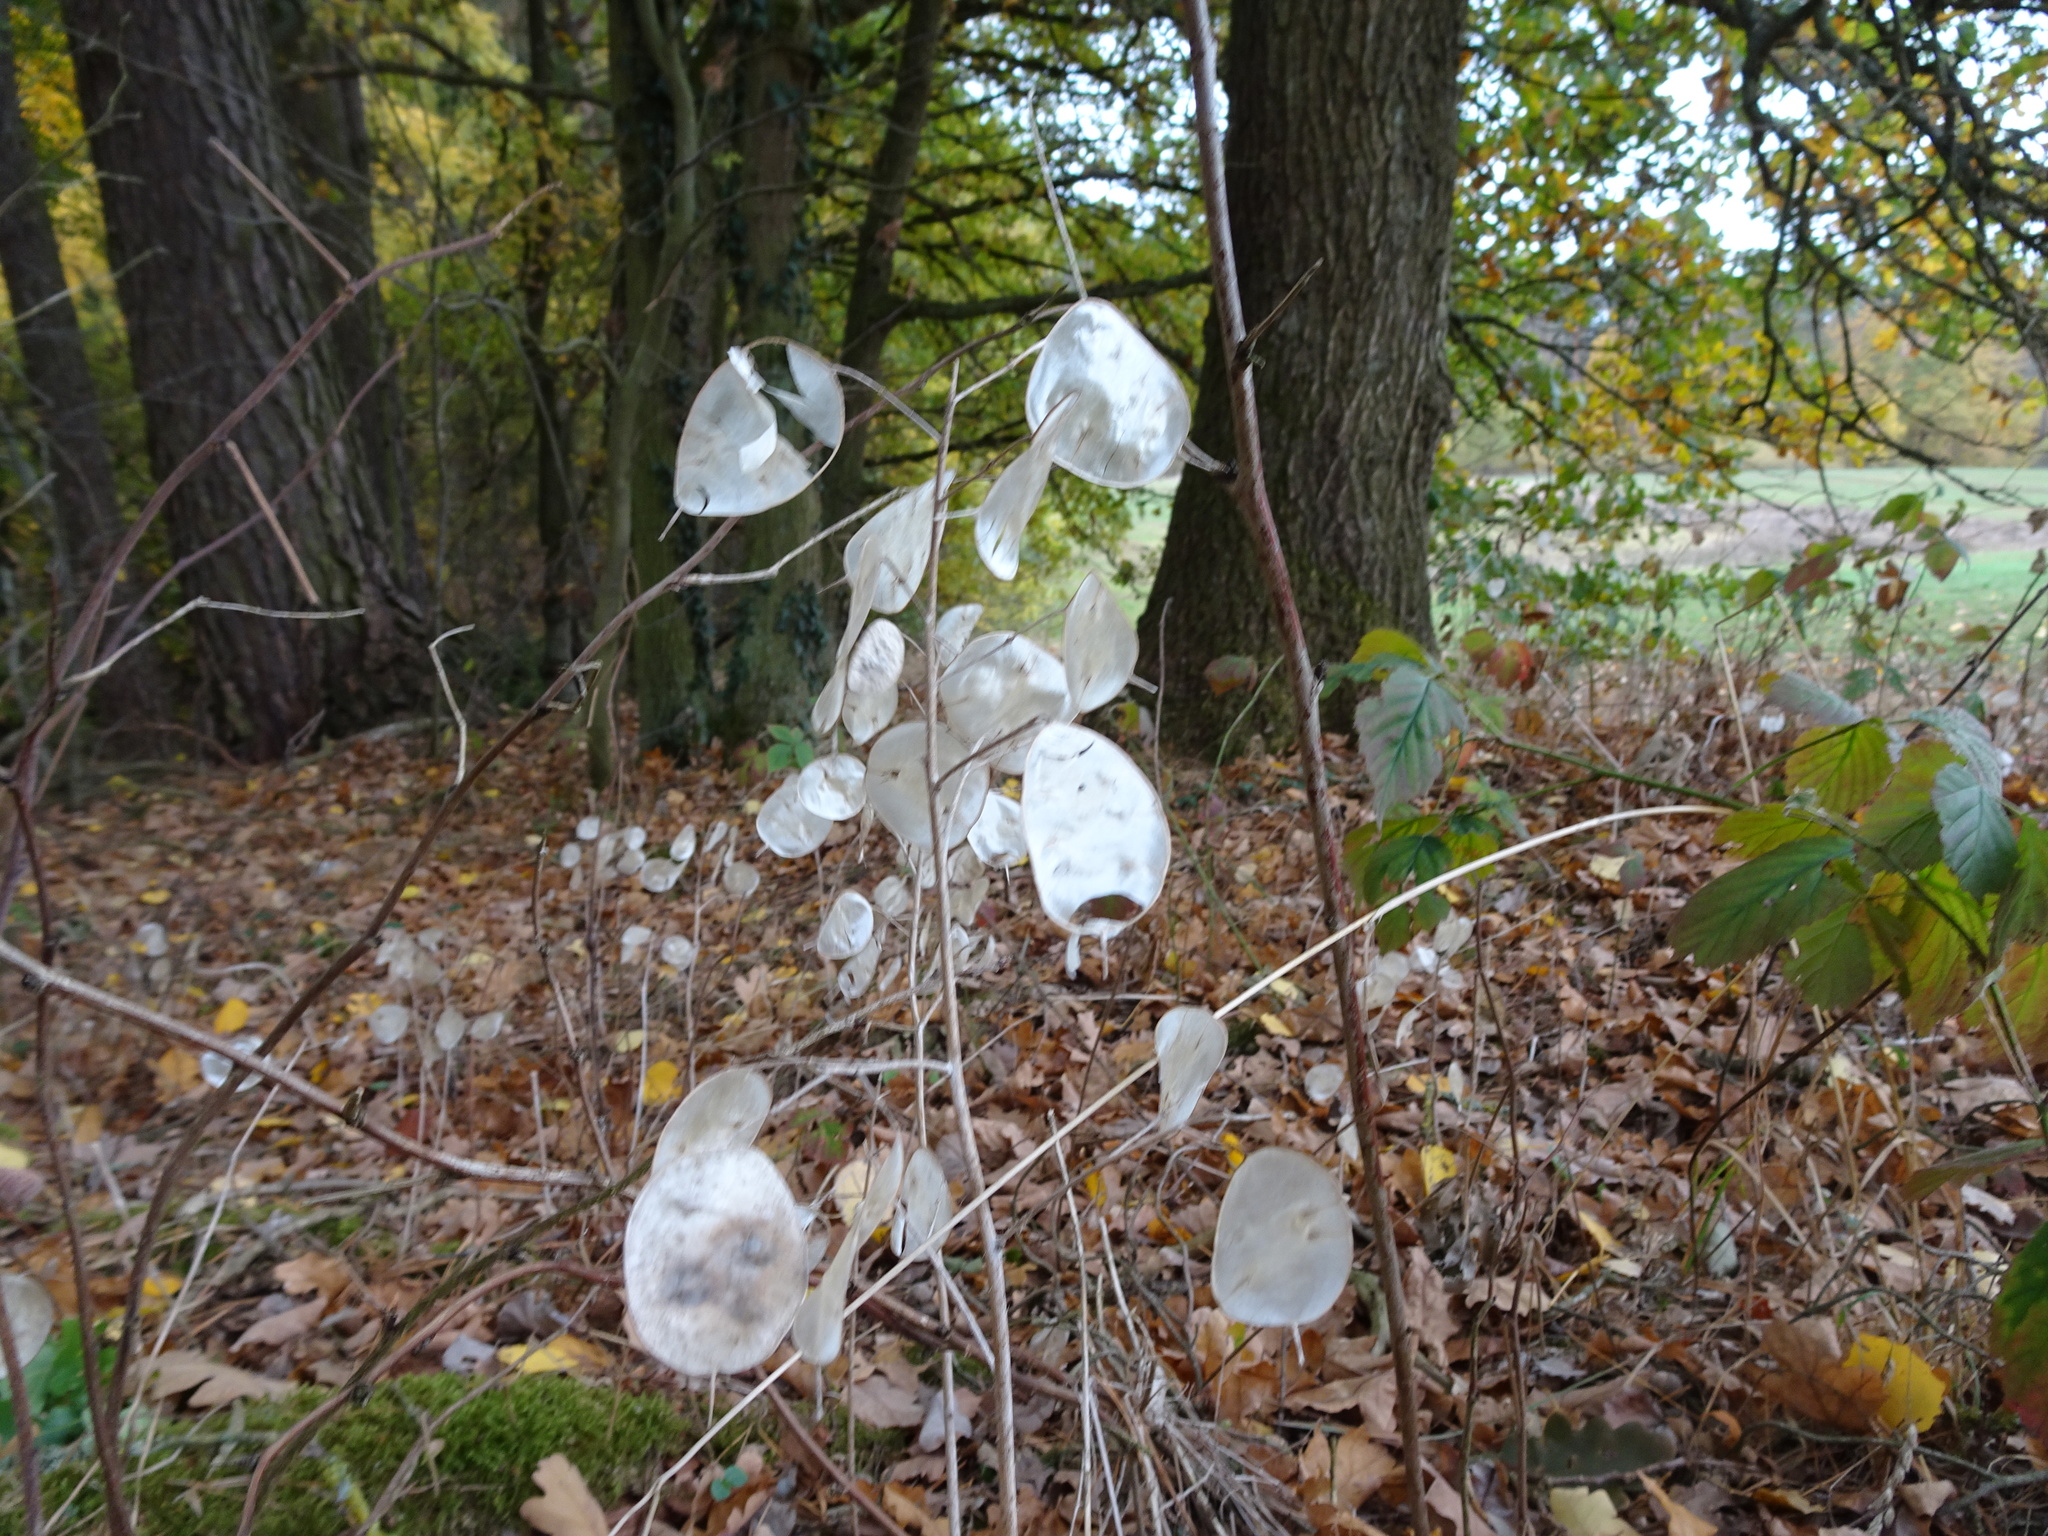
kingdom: Plantae
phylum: Tracheophyta
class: Magnoliopsida
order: Brassicales
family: Brassicaceae
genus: Lunaria
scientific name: Lunaria annua
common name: Honesty
